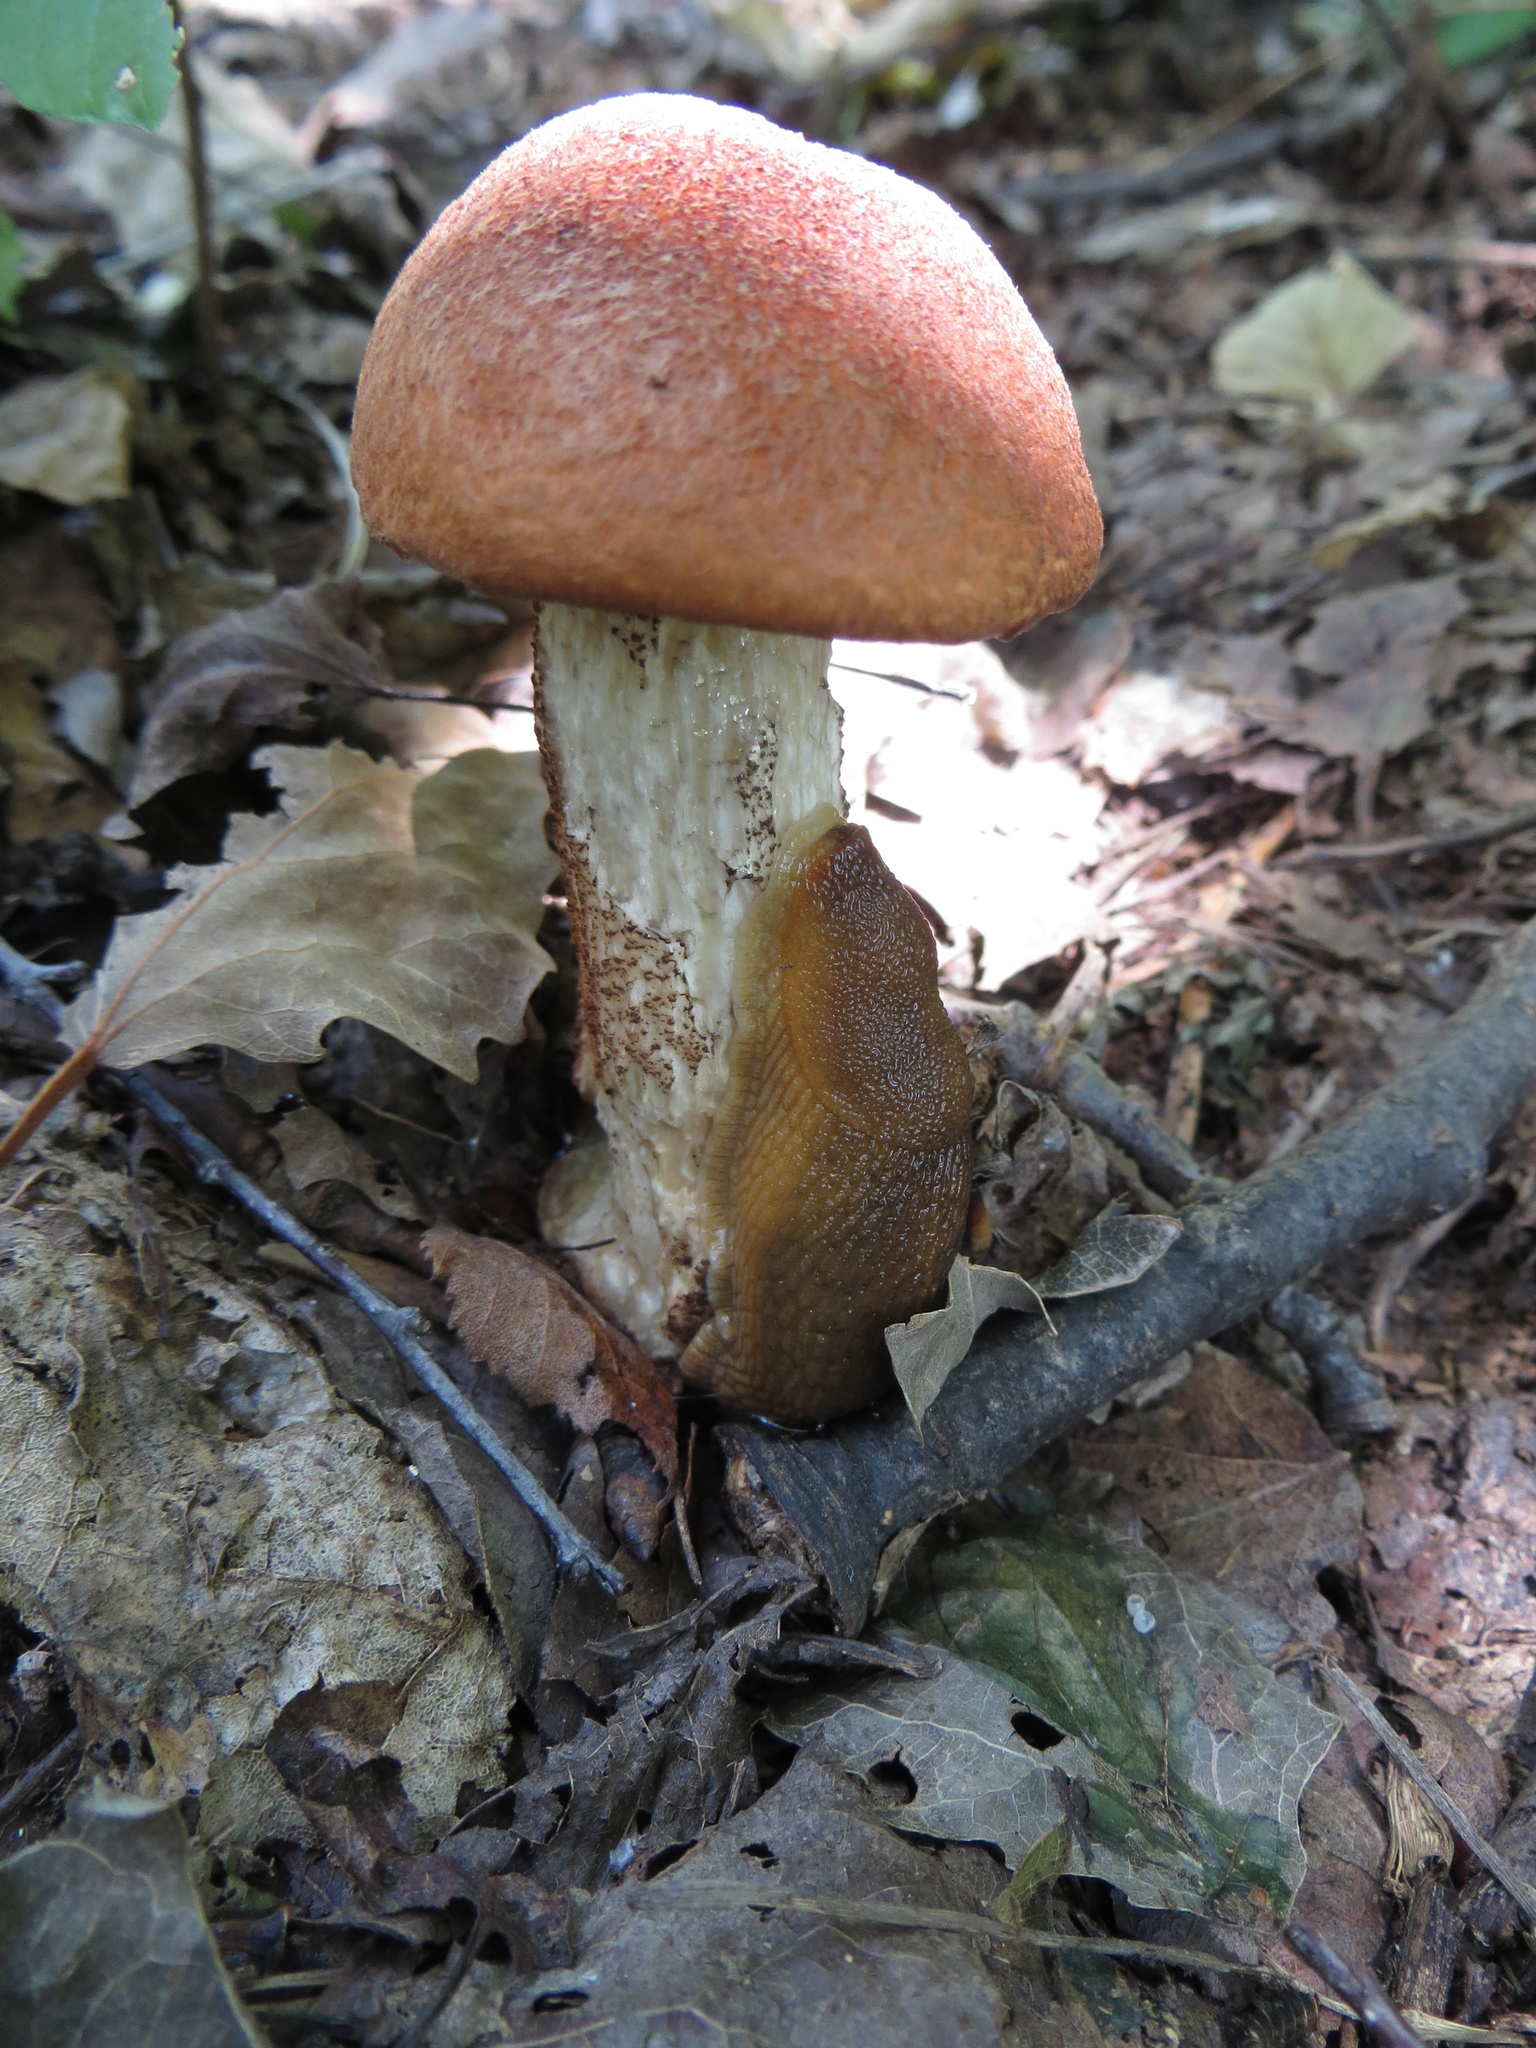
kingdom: Fungi
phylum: Basidiomycota
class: Agaricomycetes
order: Boletales
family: Boletaceae
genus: Leccinum
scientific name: Leccinum aurantiacum
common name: Orange bolete
